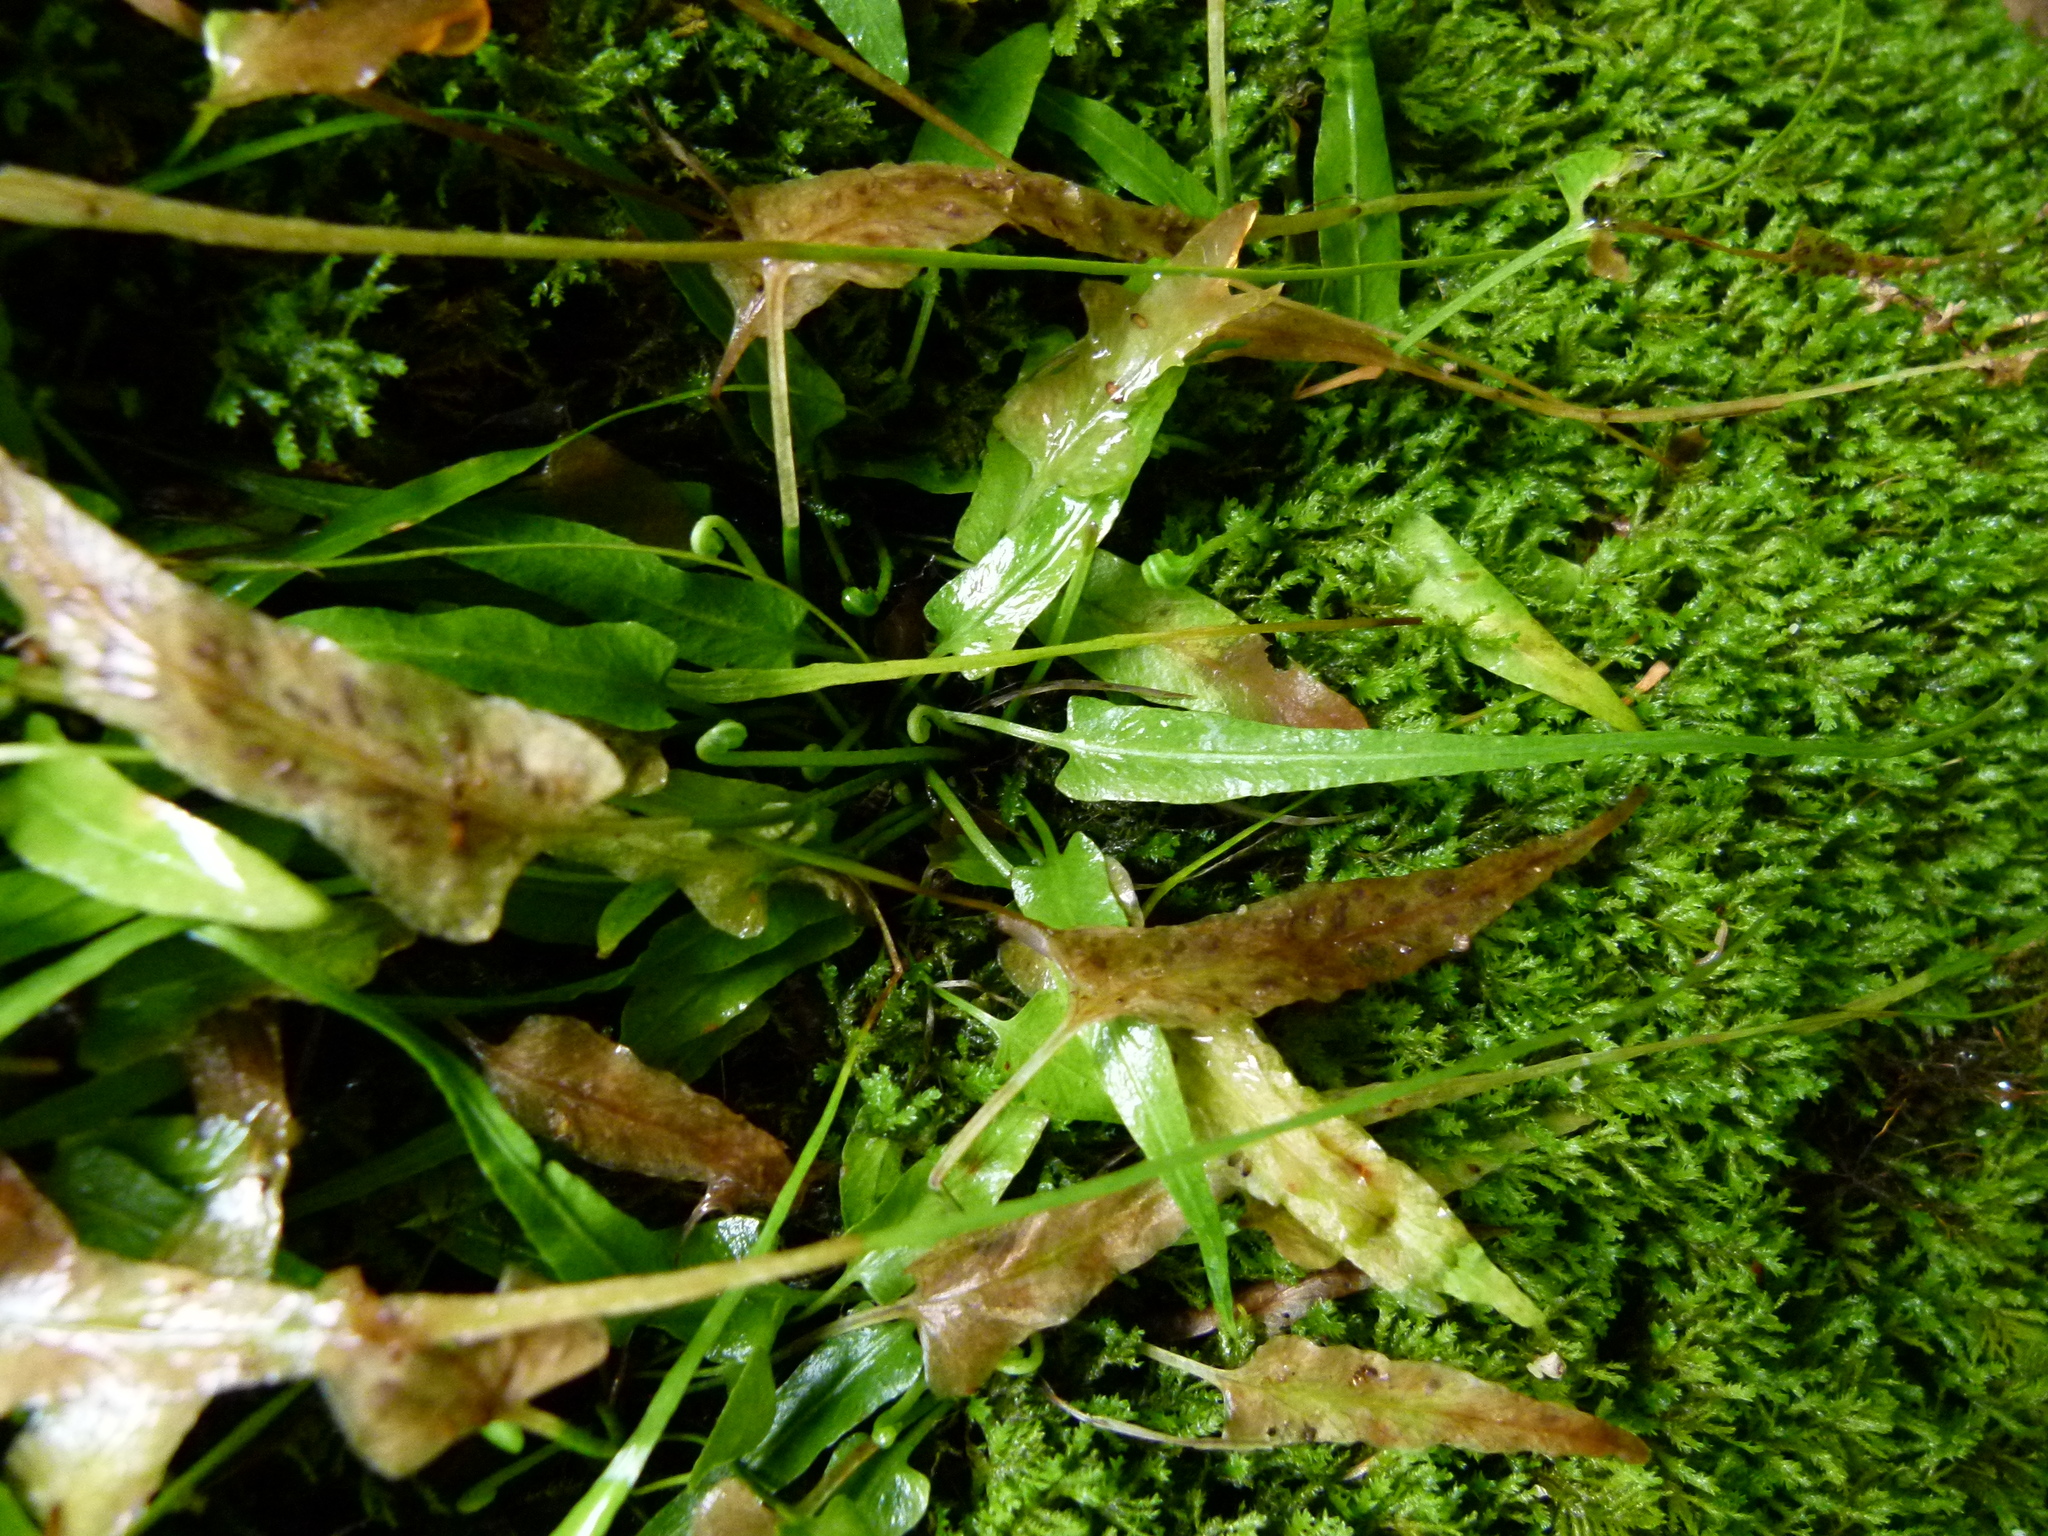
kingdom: Plantae
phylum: Tracheophyta
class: Polypodiopsida
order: Polypodiales
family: Aspleniaceae
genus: Asplenium
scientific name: Asplenium rhizophyllum
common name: Walking fern
